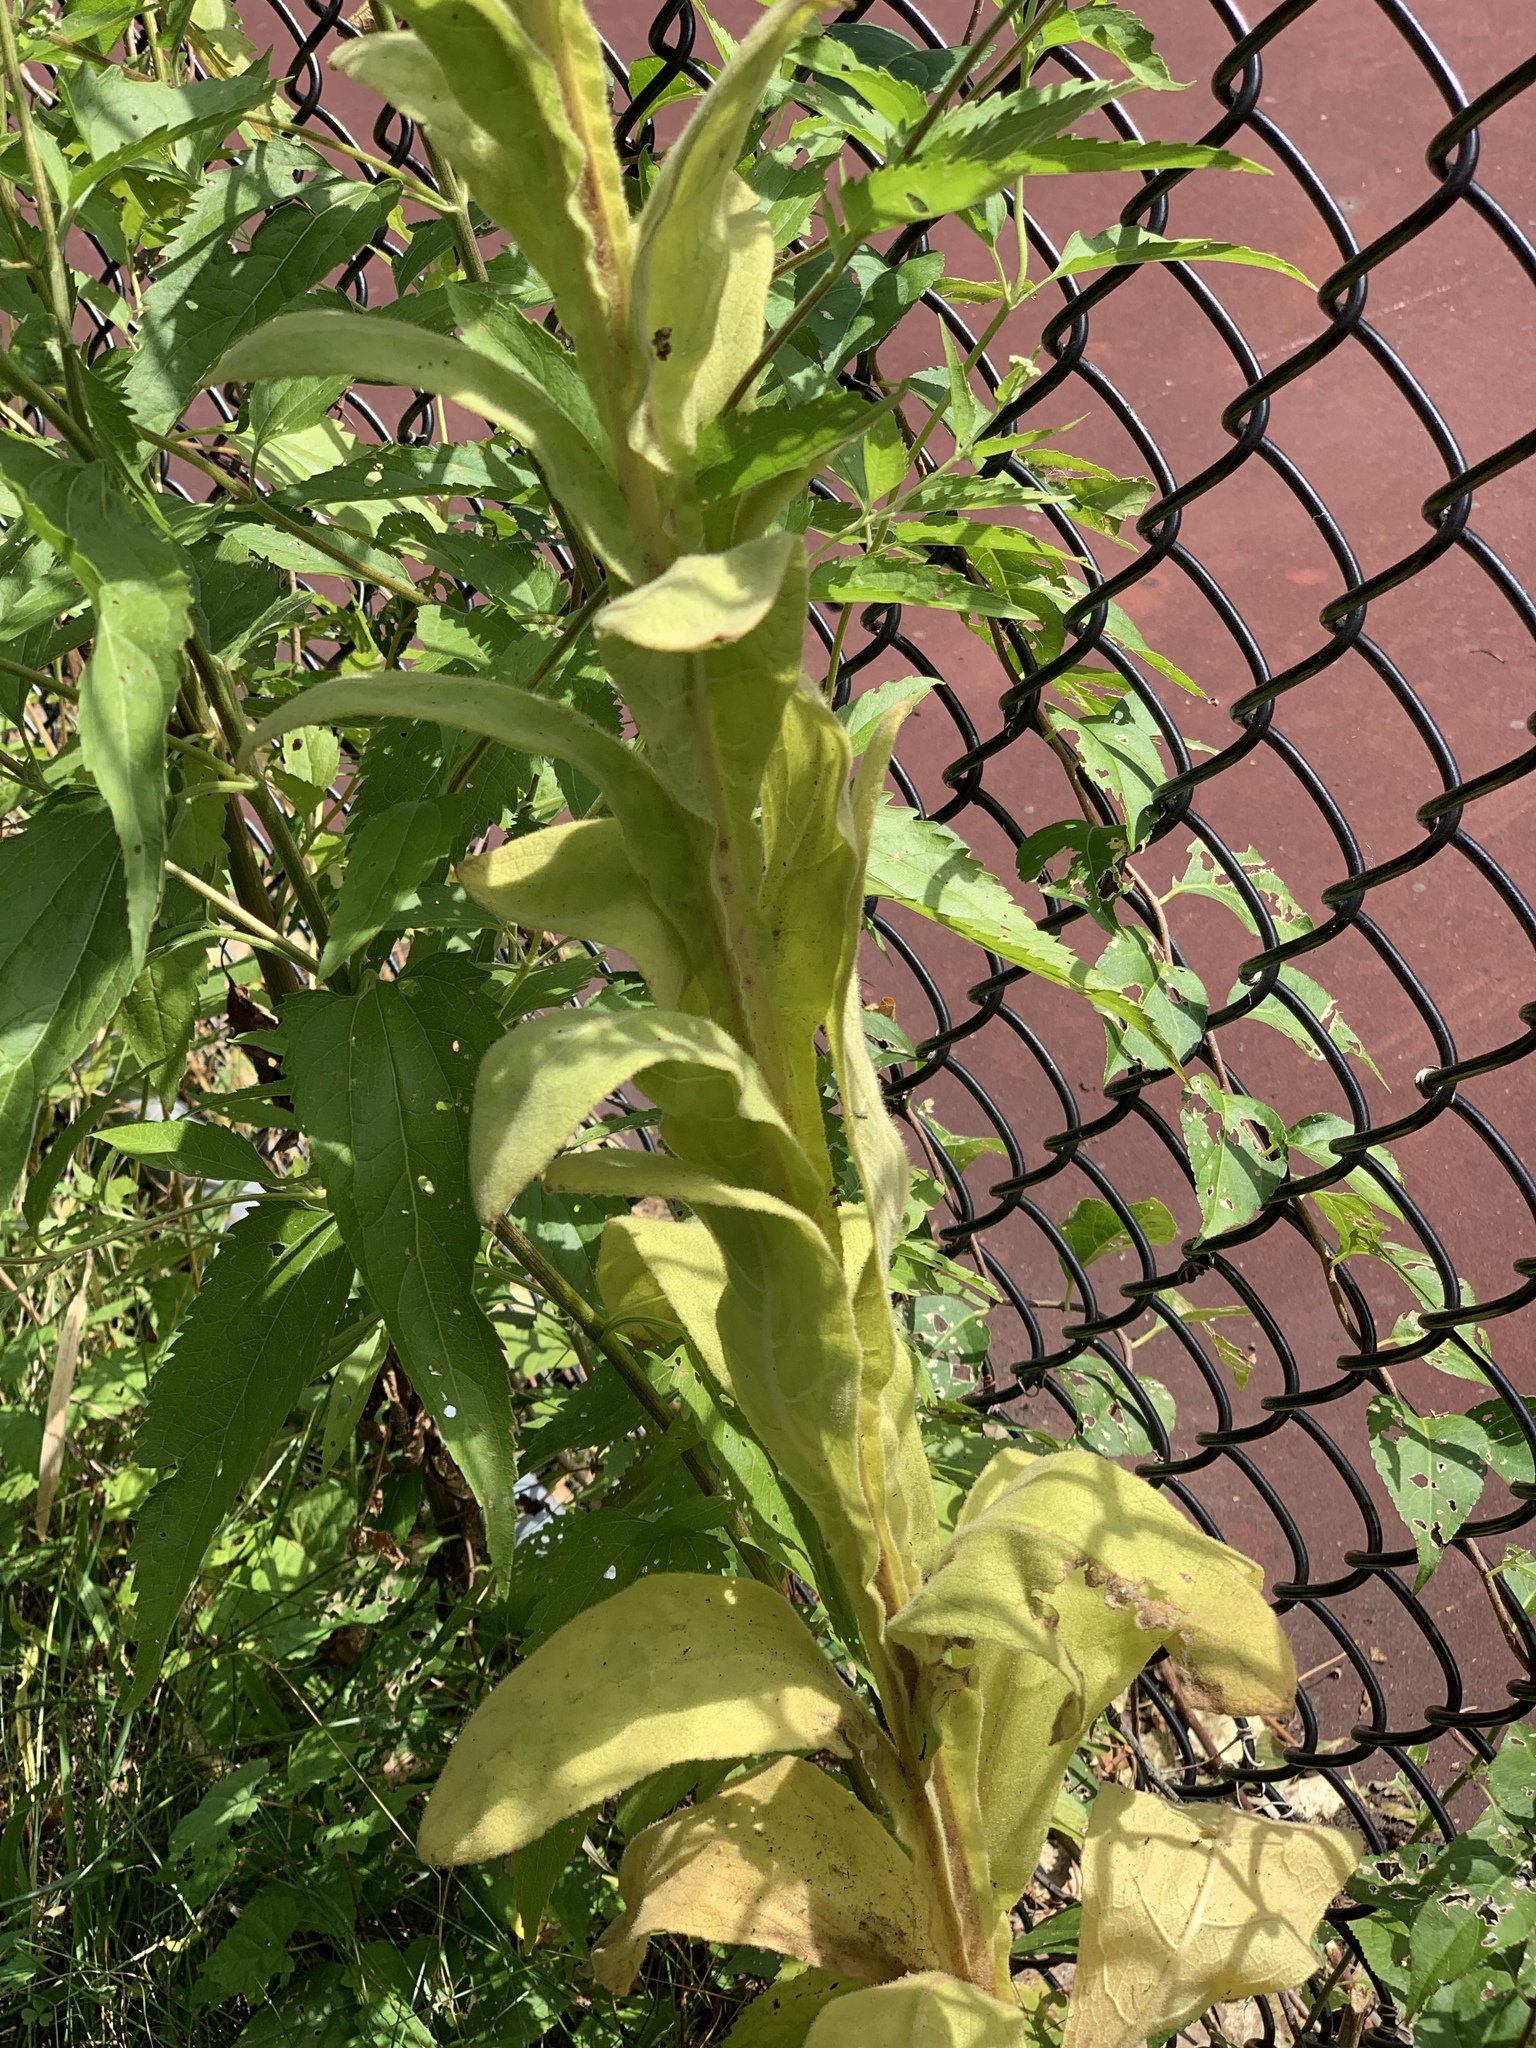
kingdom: Plantae
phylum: Tracheophyta
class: Magnoliopsida
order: Lamiales
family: Scrophulariaceae
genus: Verbascum
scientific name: Verbascum thapsus
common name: Common mullein
